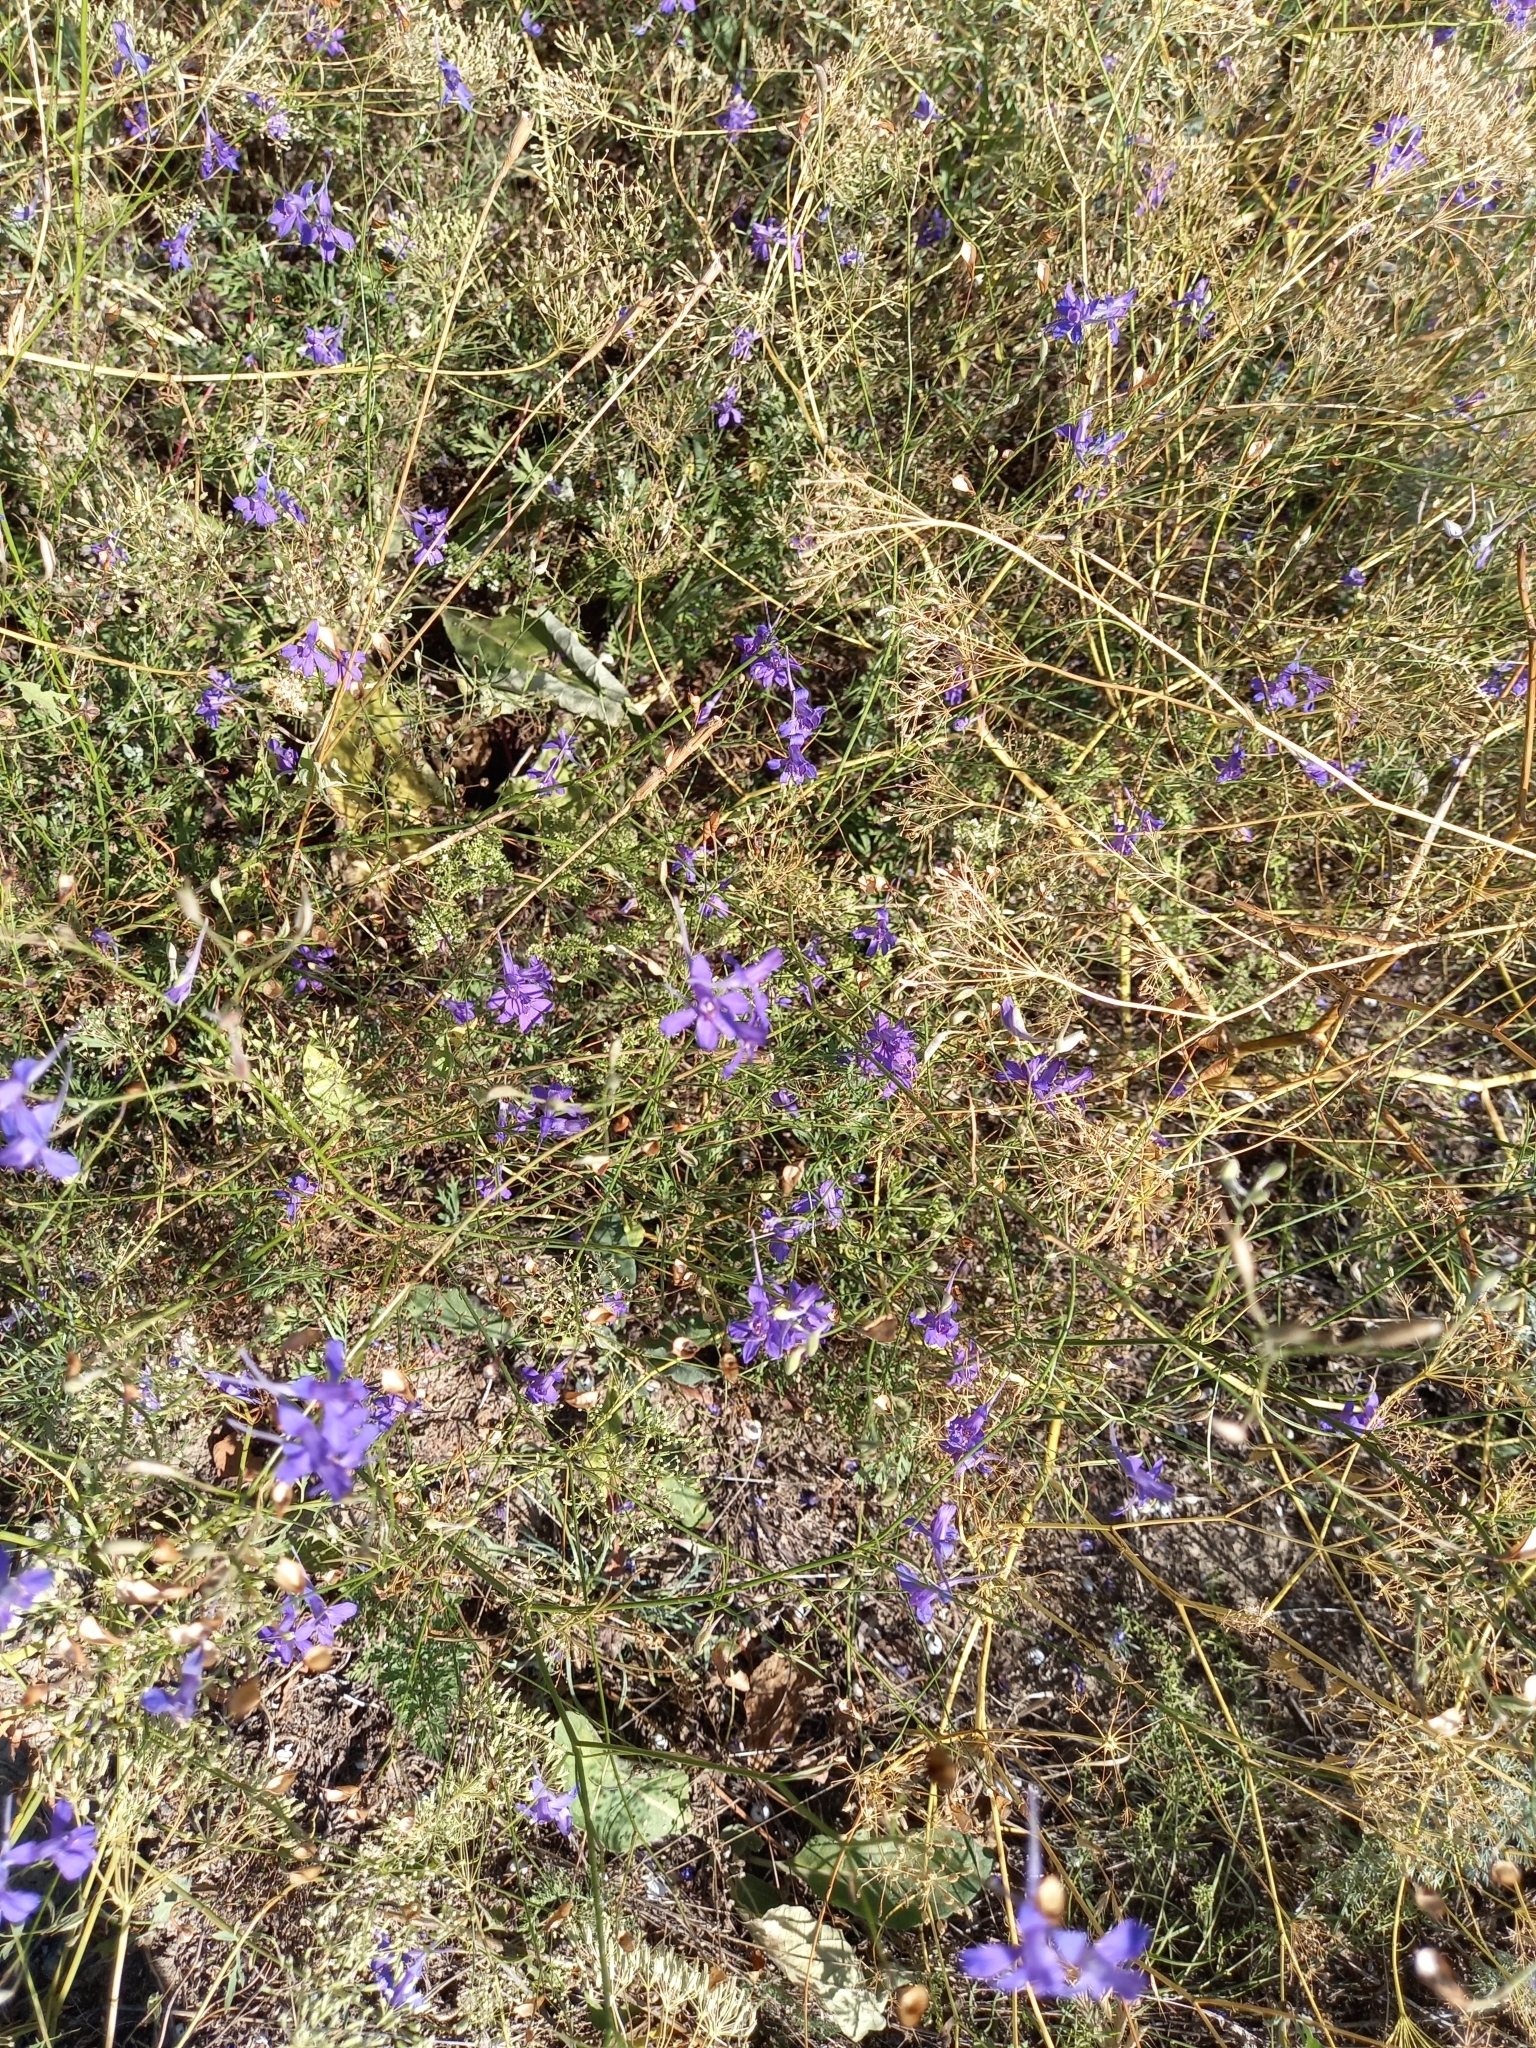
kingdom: Plantae
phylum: Tracheophyta
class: Magnoliopsida
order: Ranunculales
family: Ranunculaceae
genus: Delphinium
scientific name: Delphinium consolida
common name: Branching larkspur
